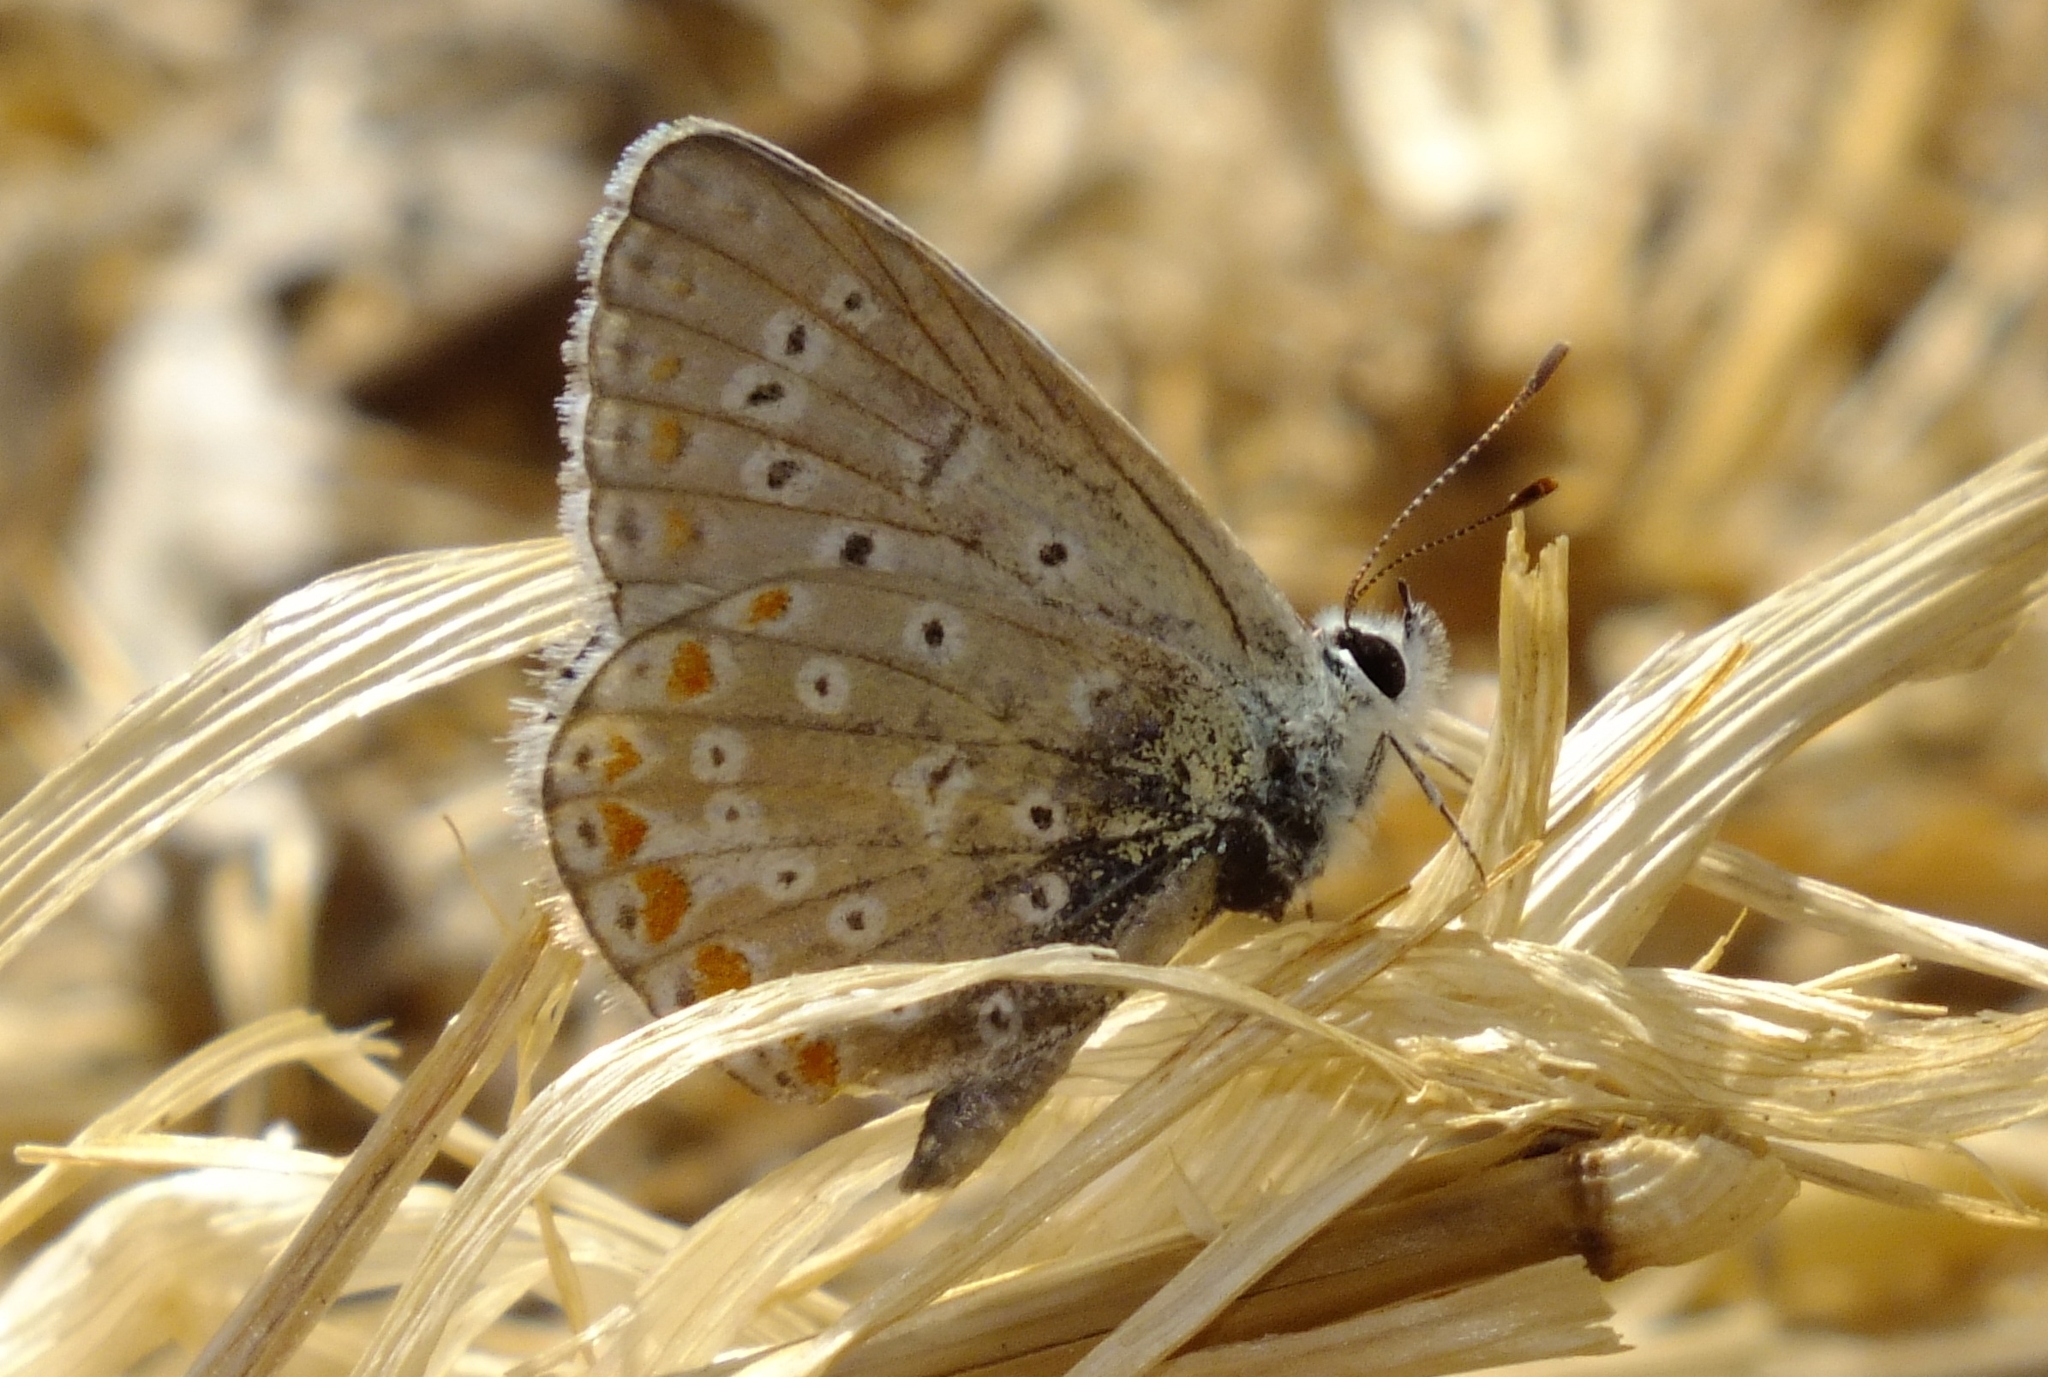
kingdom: Animalia
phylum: Arthropoda
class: Insecta
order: Lepidoptera
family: Lycaenidae
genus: Polyommatus
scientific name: Polyommatus icarus
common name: Common blue
